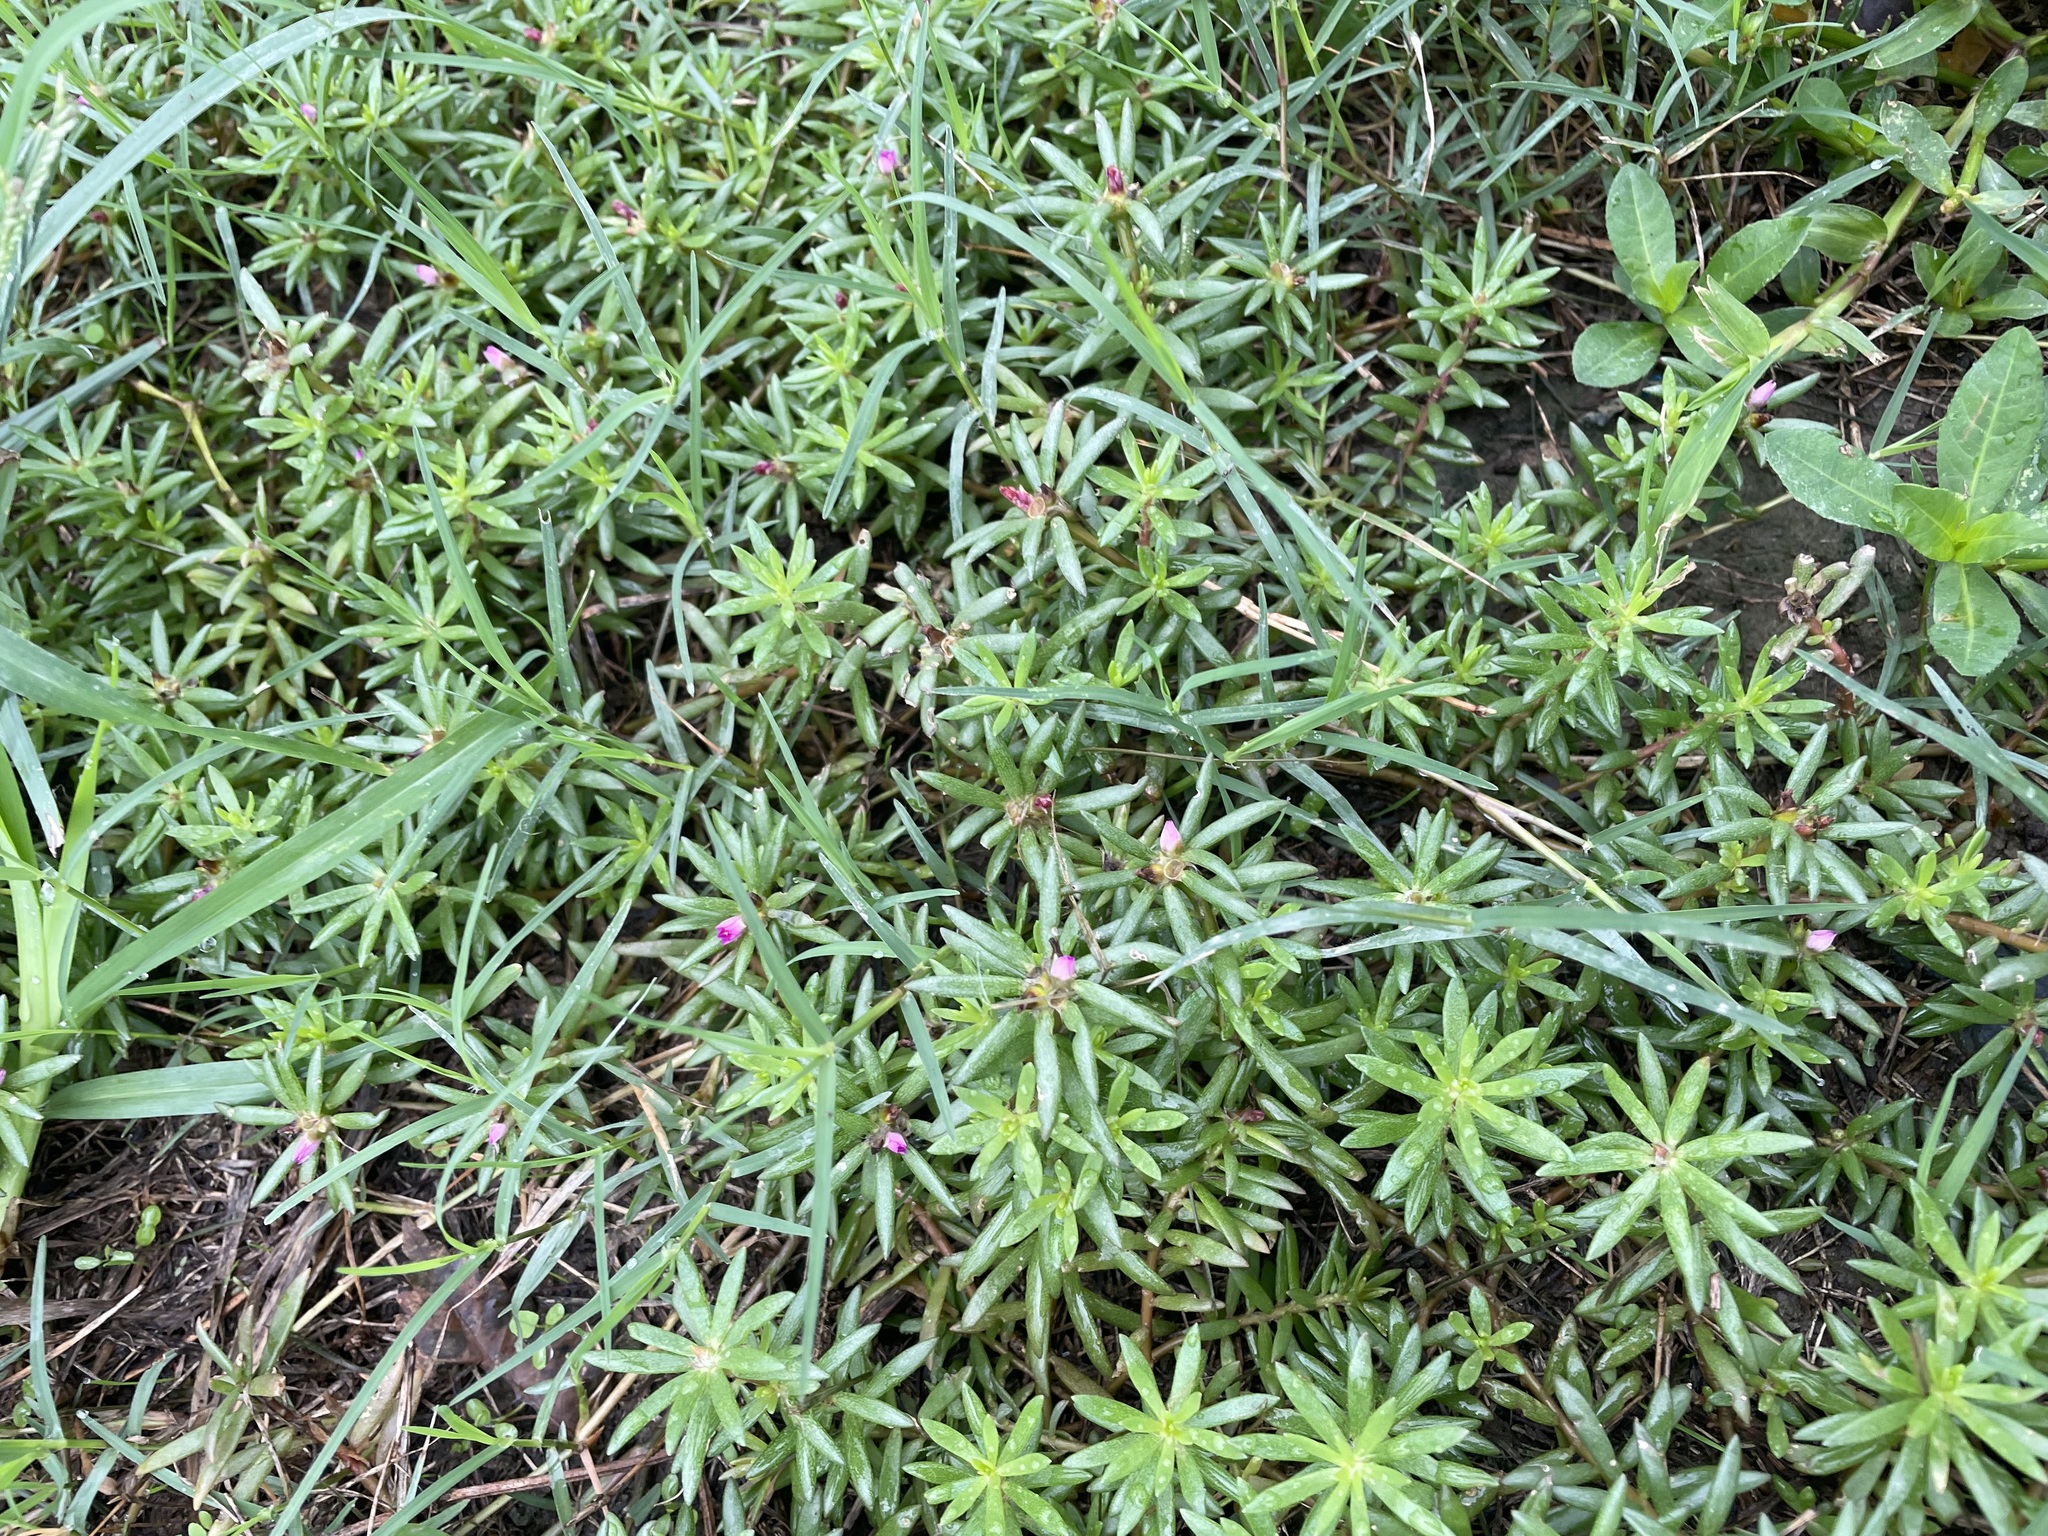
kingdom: Plantae
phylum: Tracheophyta
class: Magnoliopsida
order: Caryophyllales
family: Portulacaceae
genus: Portulaca
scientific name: Portulaca pilosa
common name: Kiss me quick
